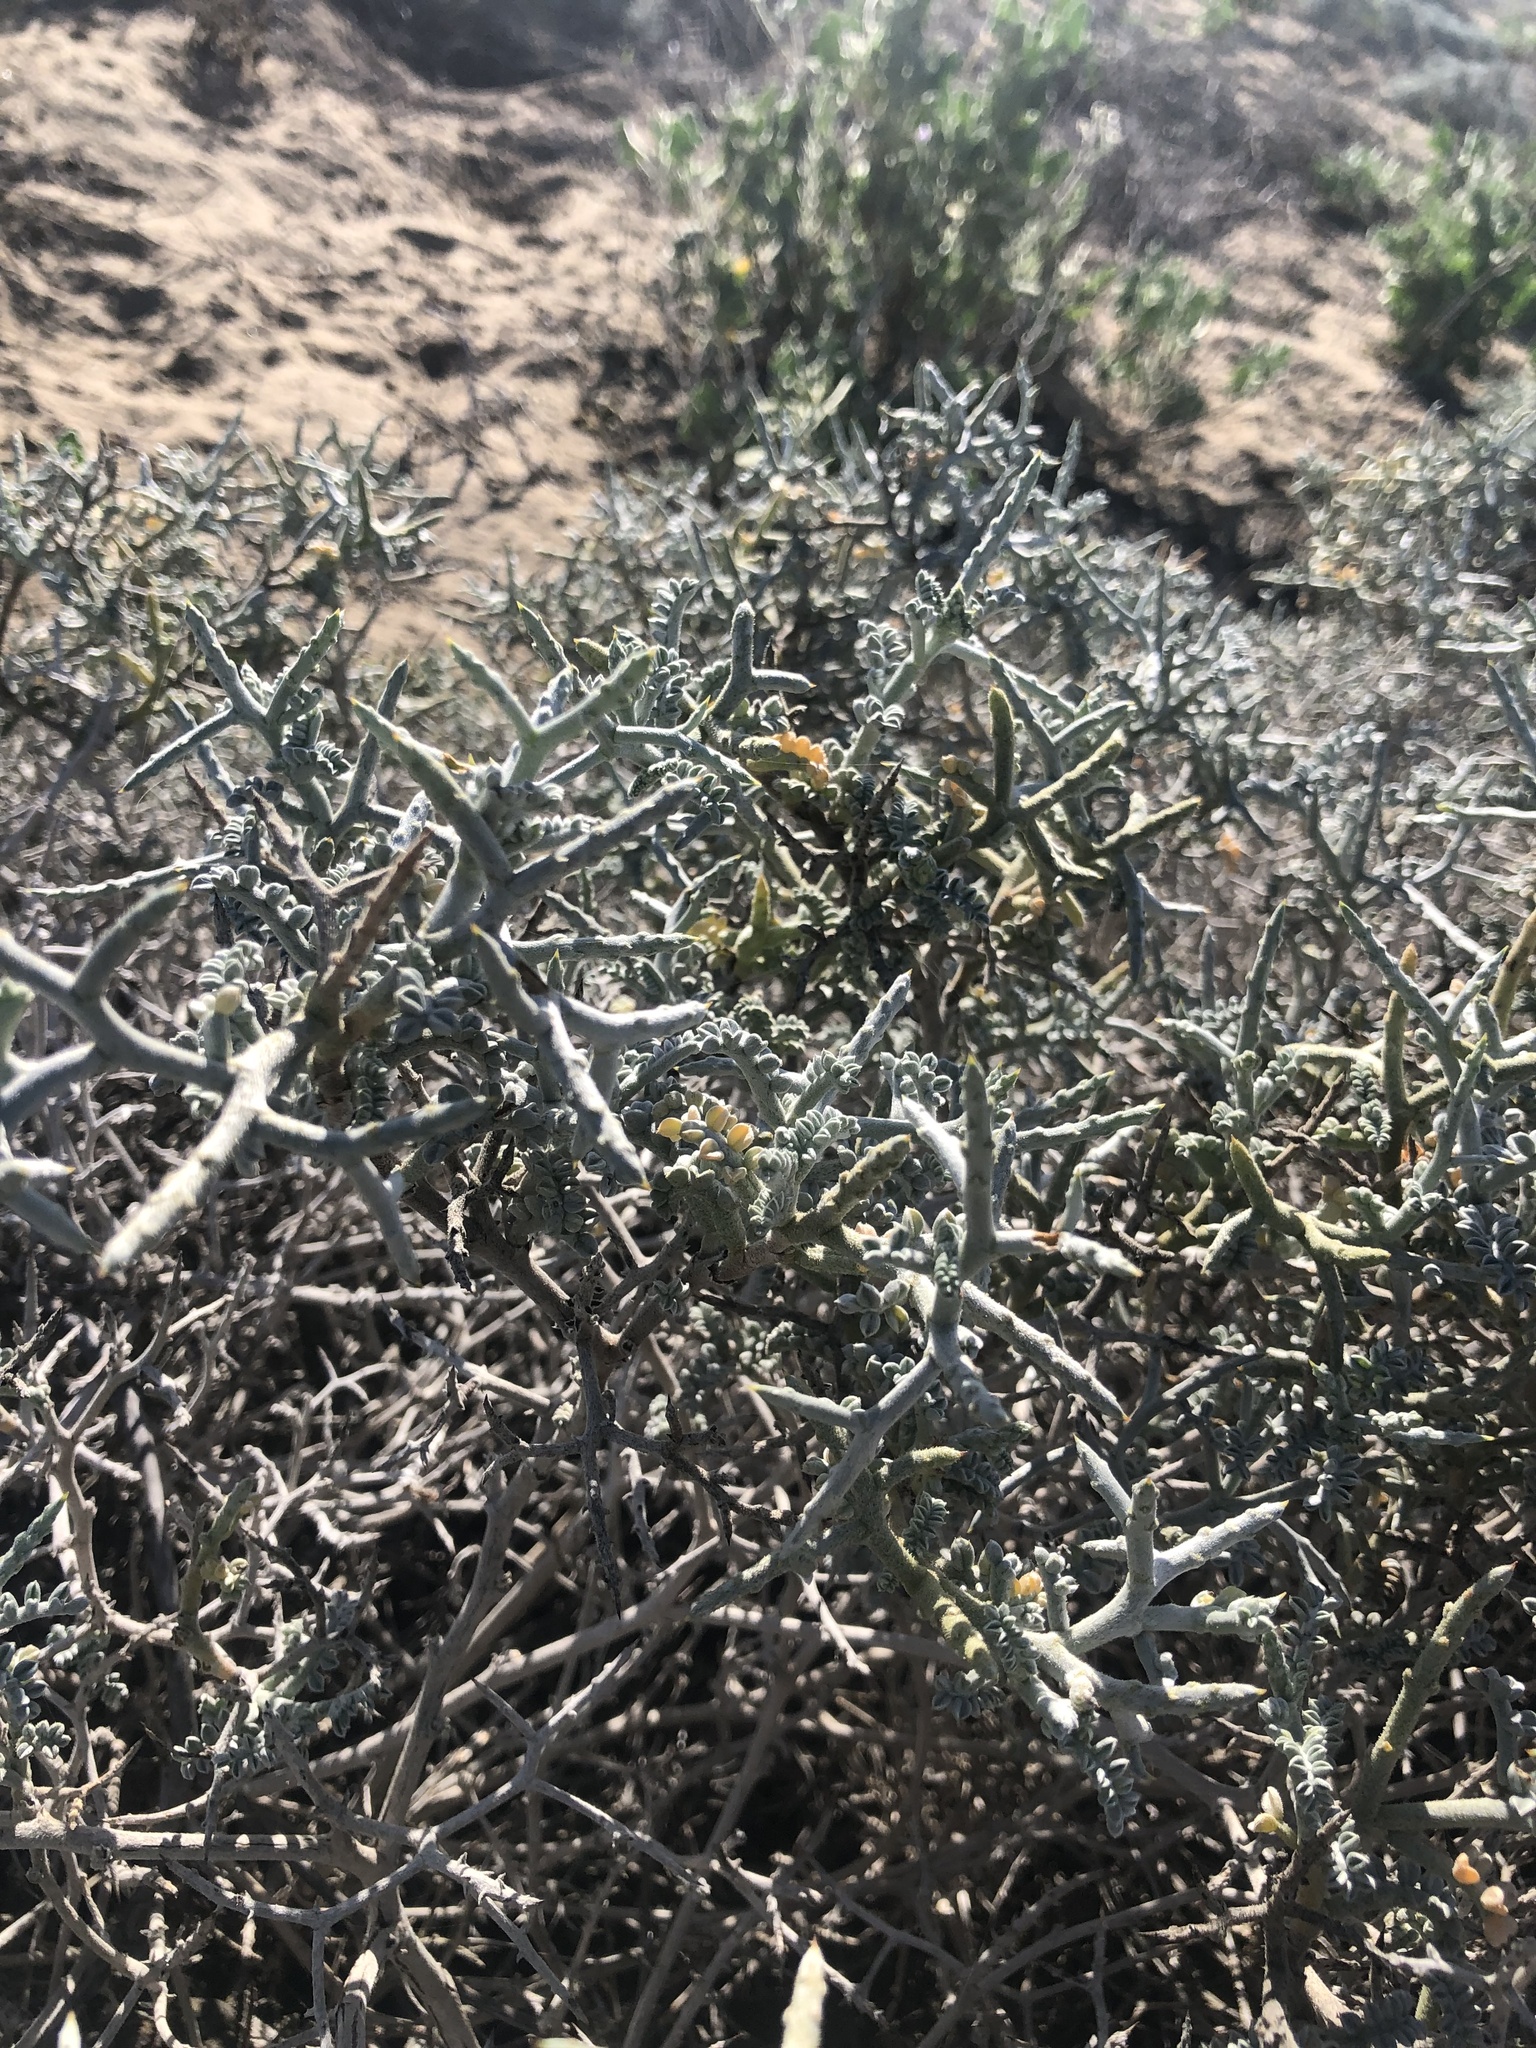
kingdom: Plantae
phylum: Tracheophyta
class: Magnoliopsida
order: Fabales
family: Fabaceae
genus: Adesmia
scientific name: Adesmia littoralis
